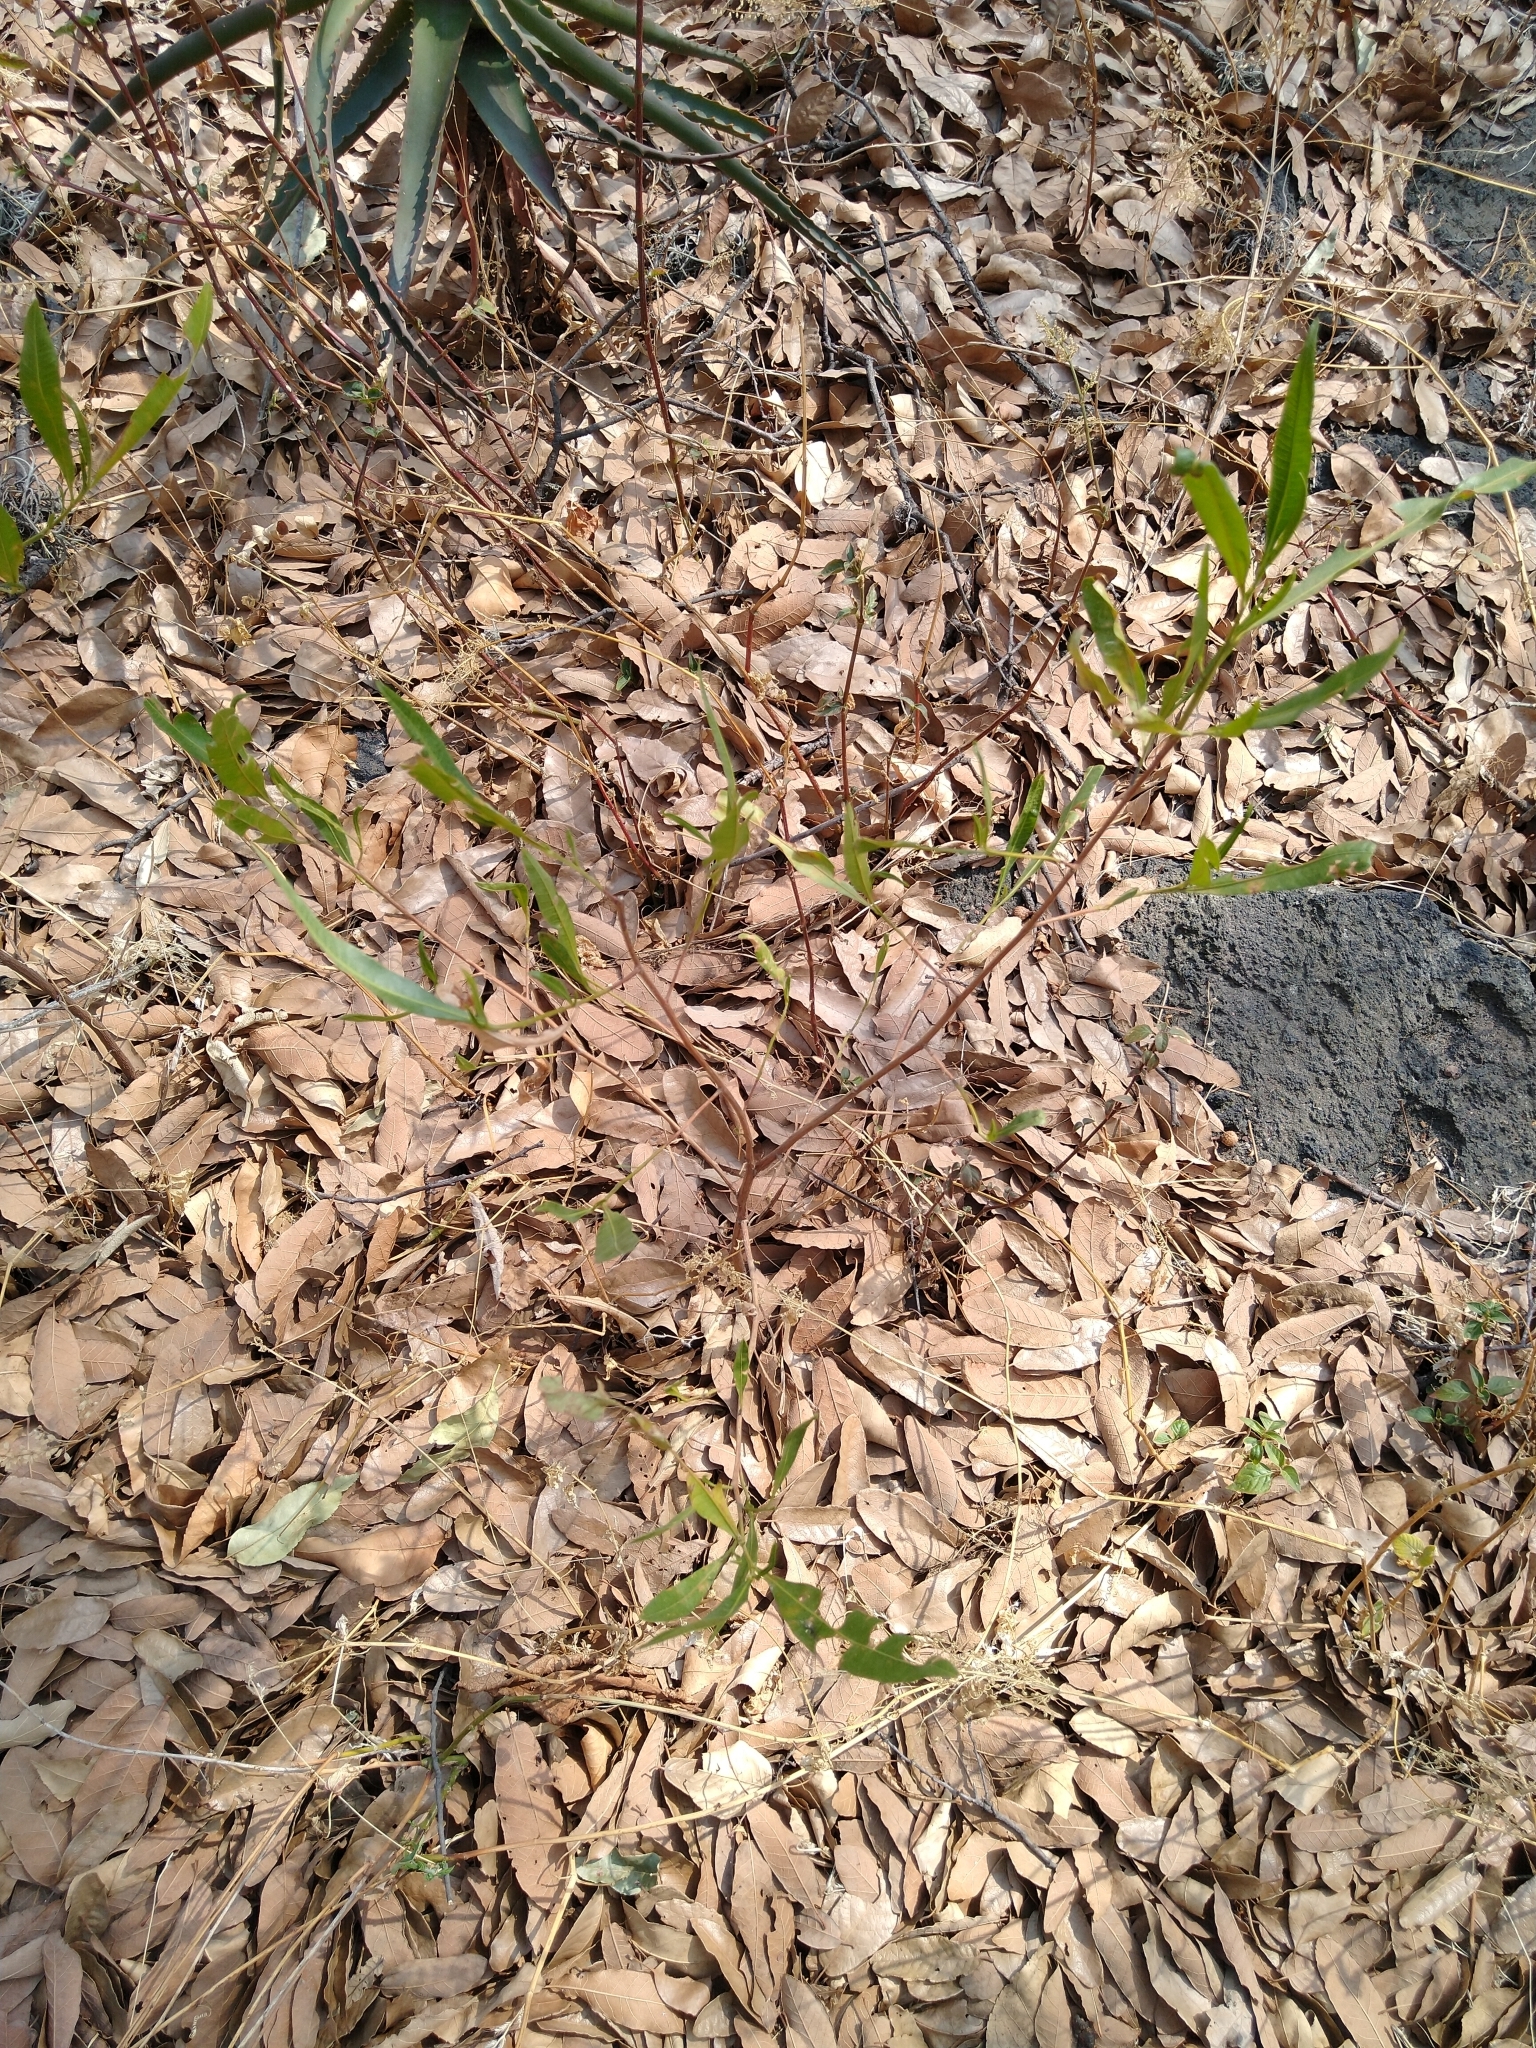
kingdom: Plantae
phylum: Tracheophyta
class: Magnoliopsida
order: Sapindales
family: Sapindaceae
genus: Dodonaea
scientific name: Dodonaea viscosa
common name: Hopbush
